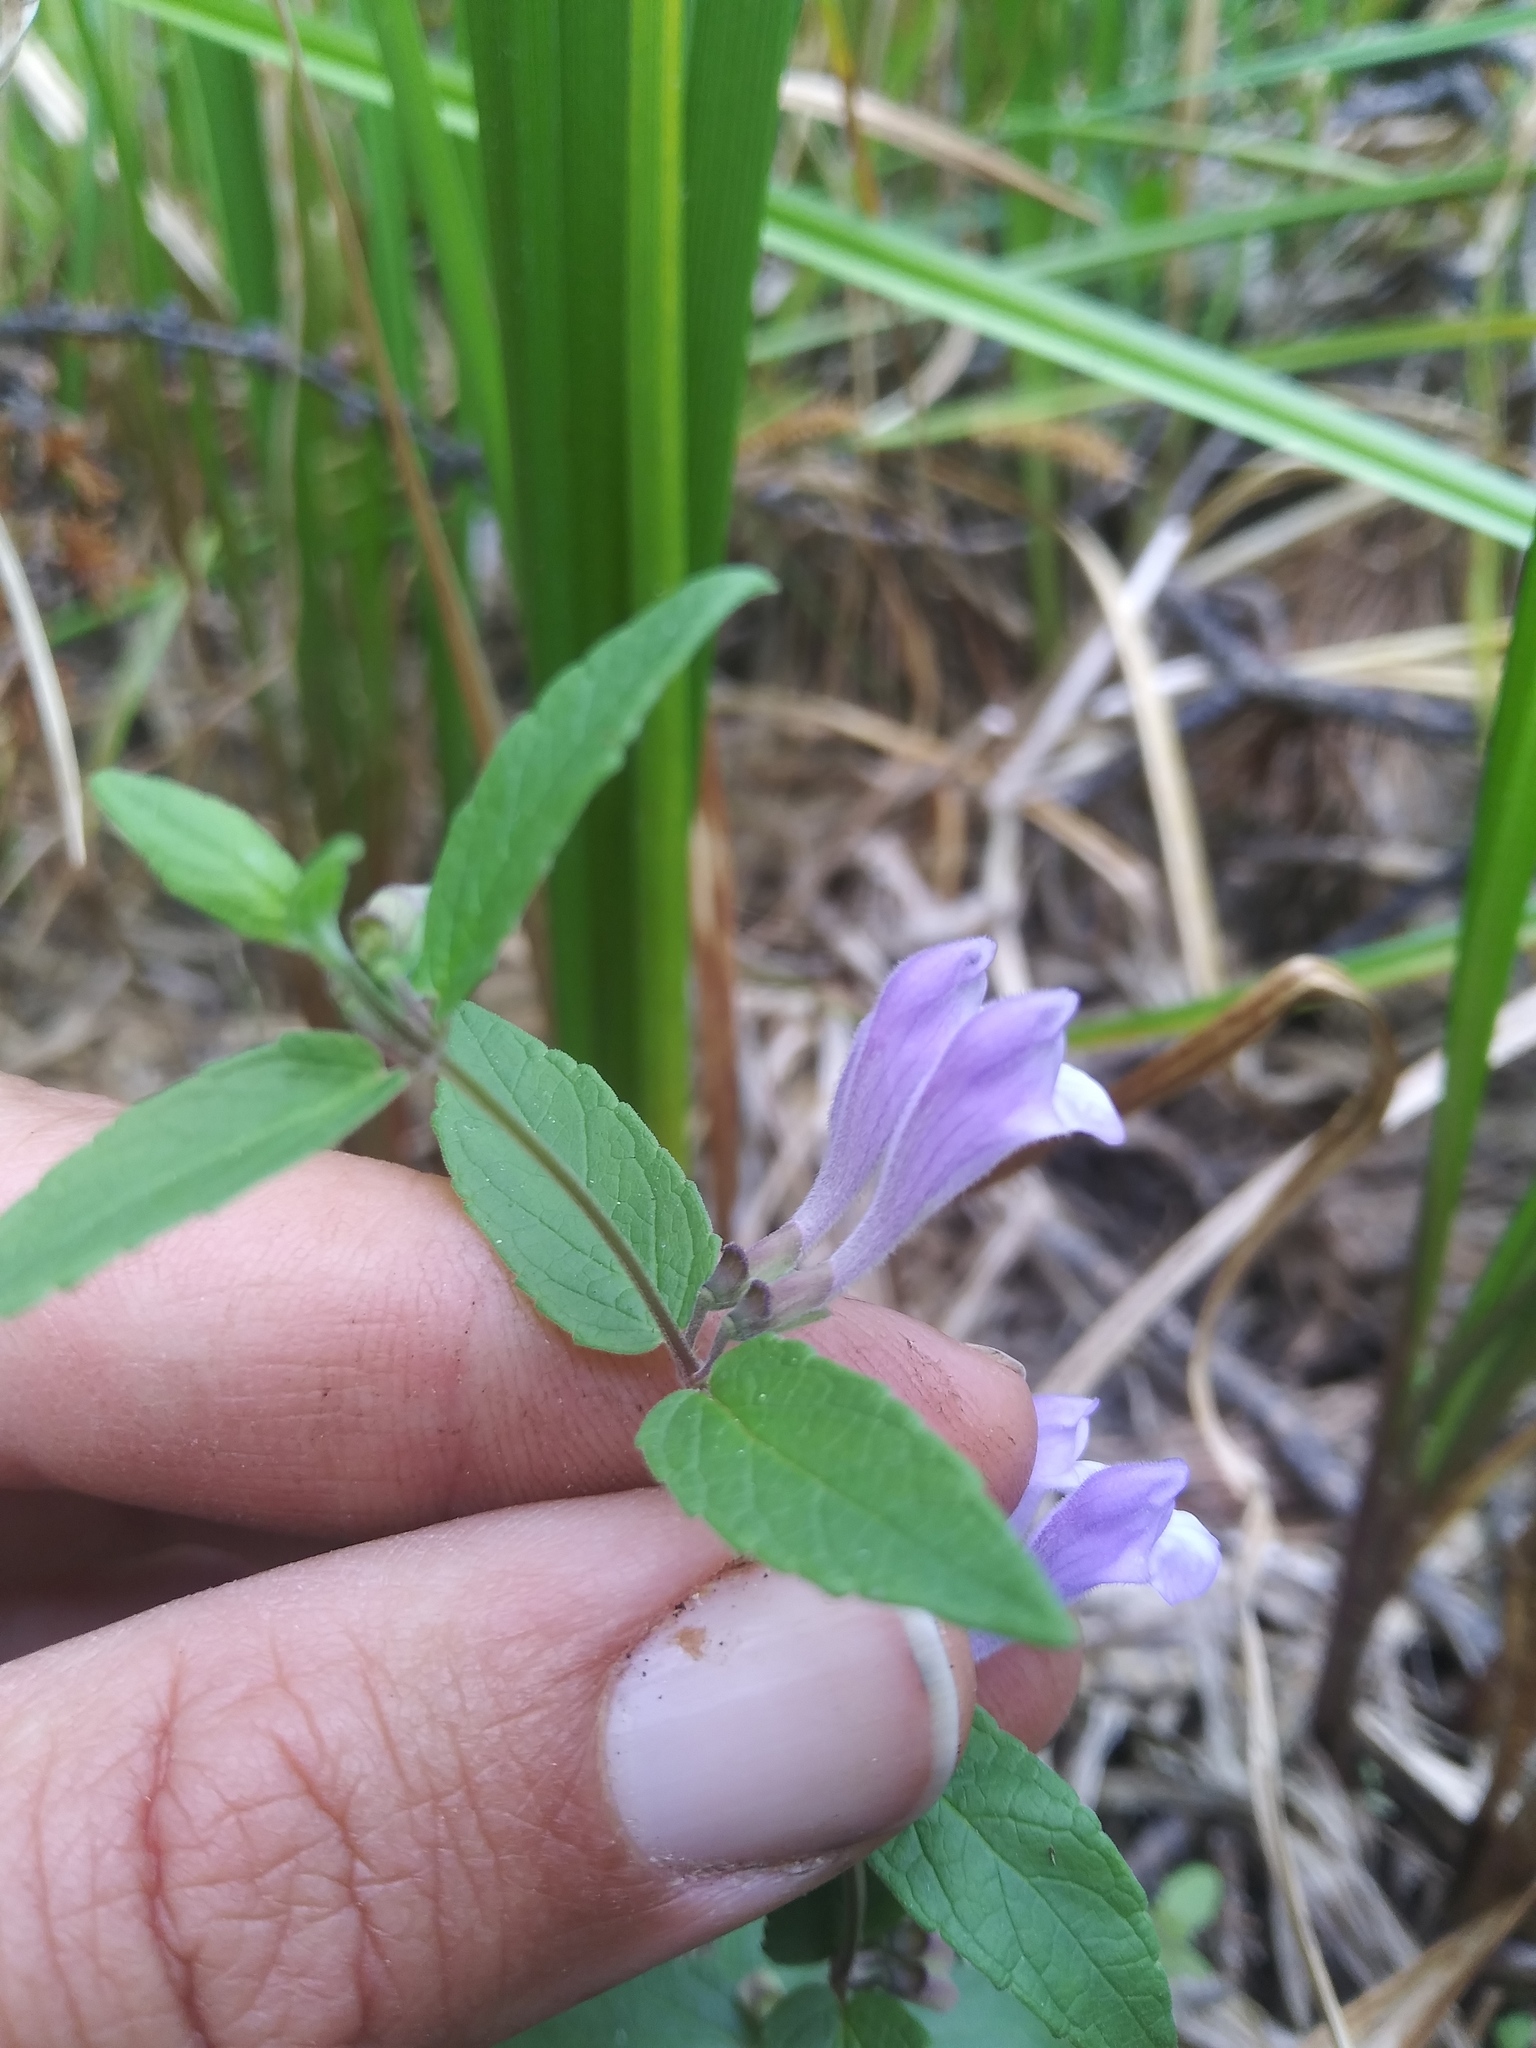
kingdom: Plantae
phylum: Tracheophyta
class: Magnoliopsida
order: Lamiales
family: Lamiaceae
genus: Scutellaria
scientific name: Scutellaria galericulata
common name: Skullcap
